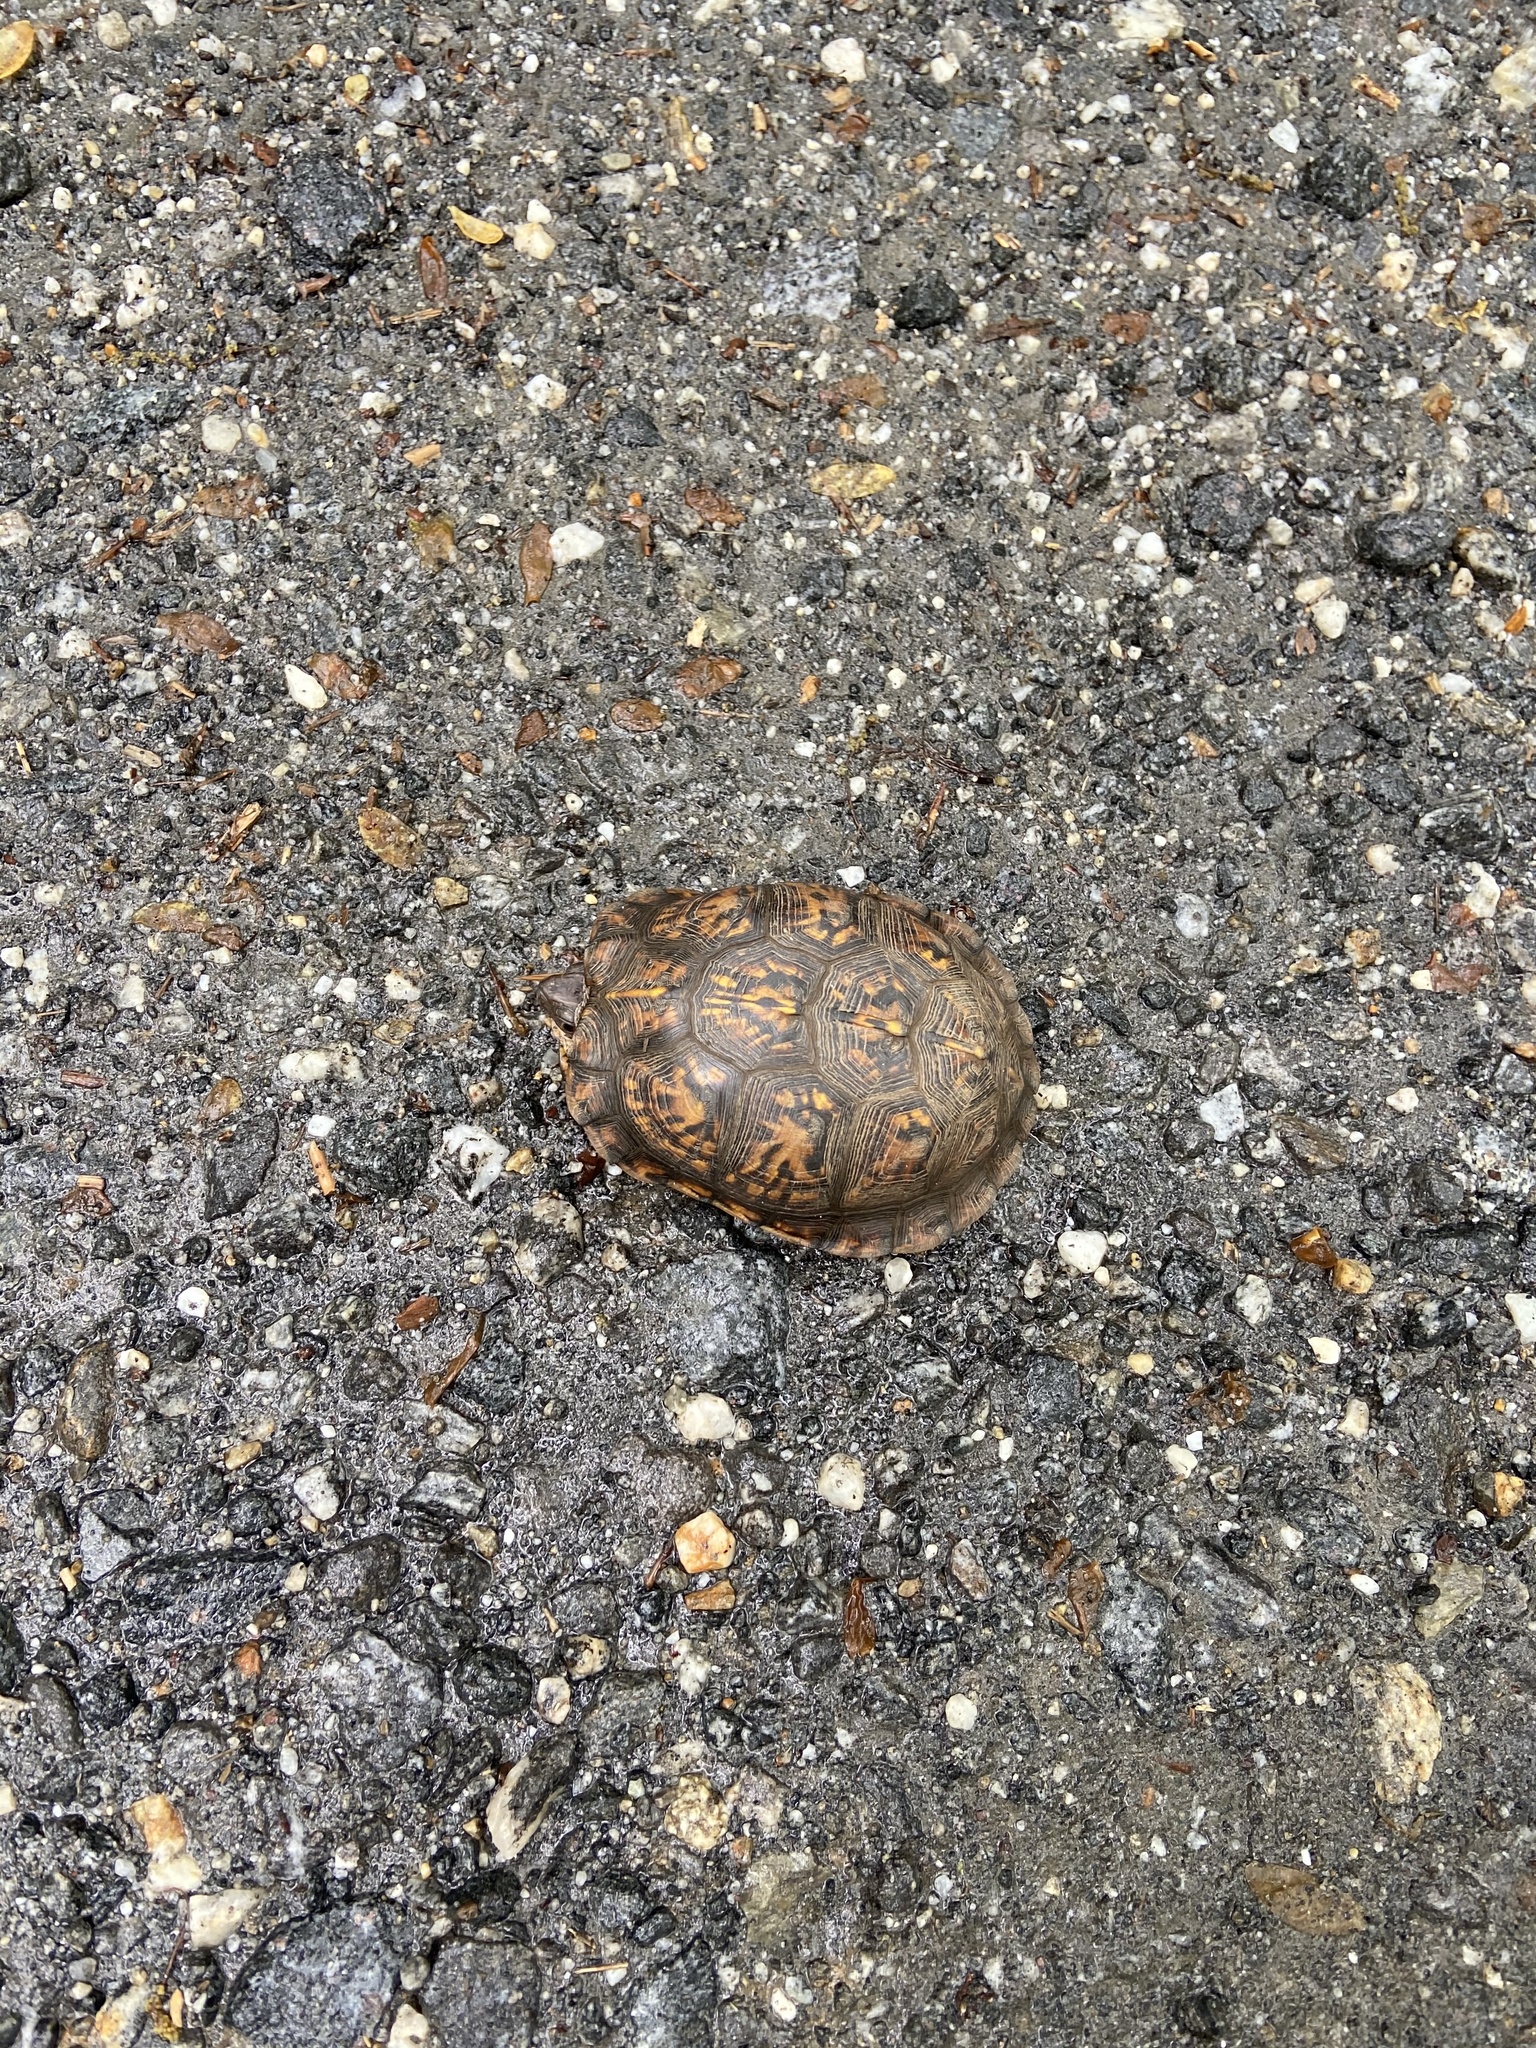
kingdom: Animalia
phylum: Chordata
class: Testudines
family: Emydidae
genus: Terrapene
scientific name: Terrapene carolina
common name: Common box turtle
